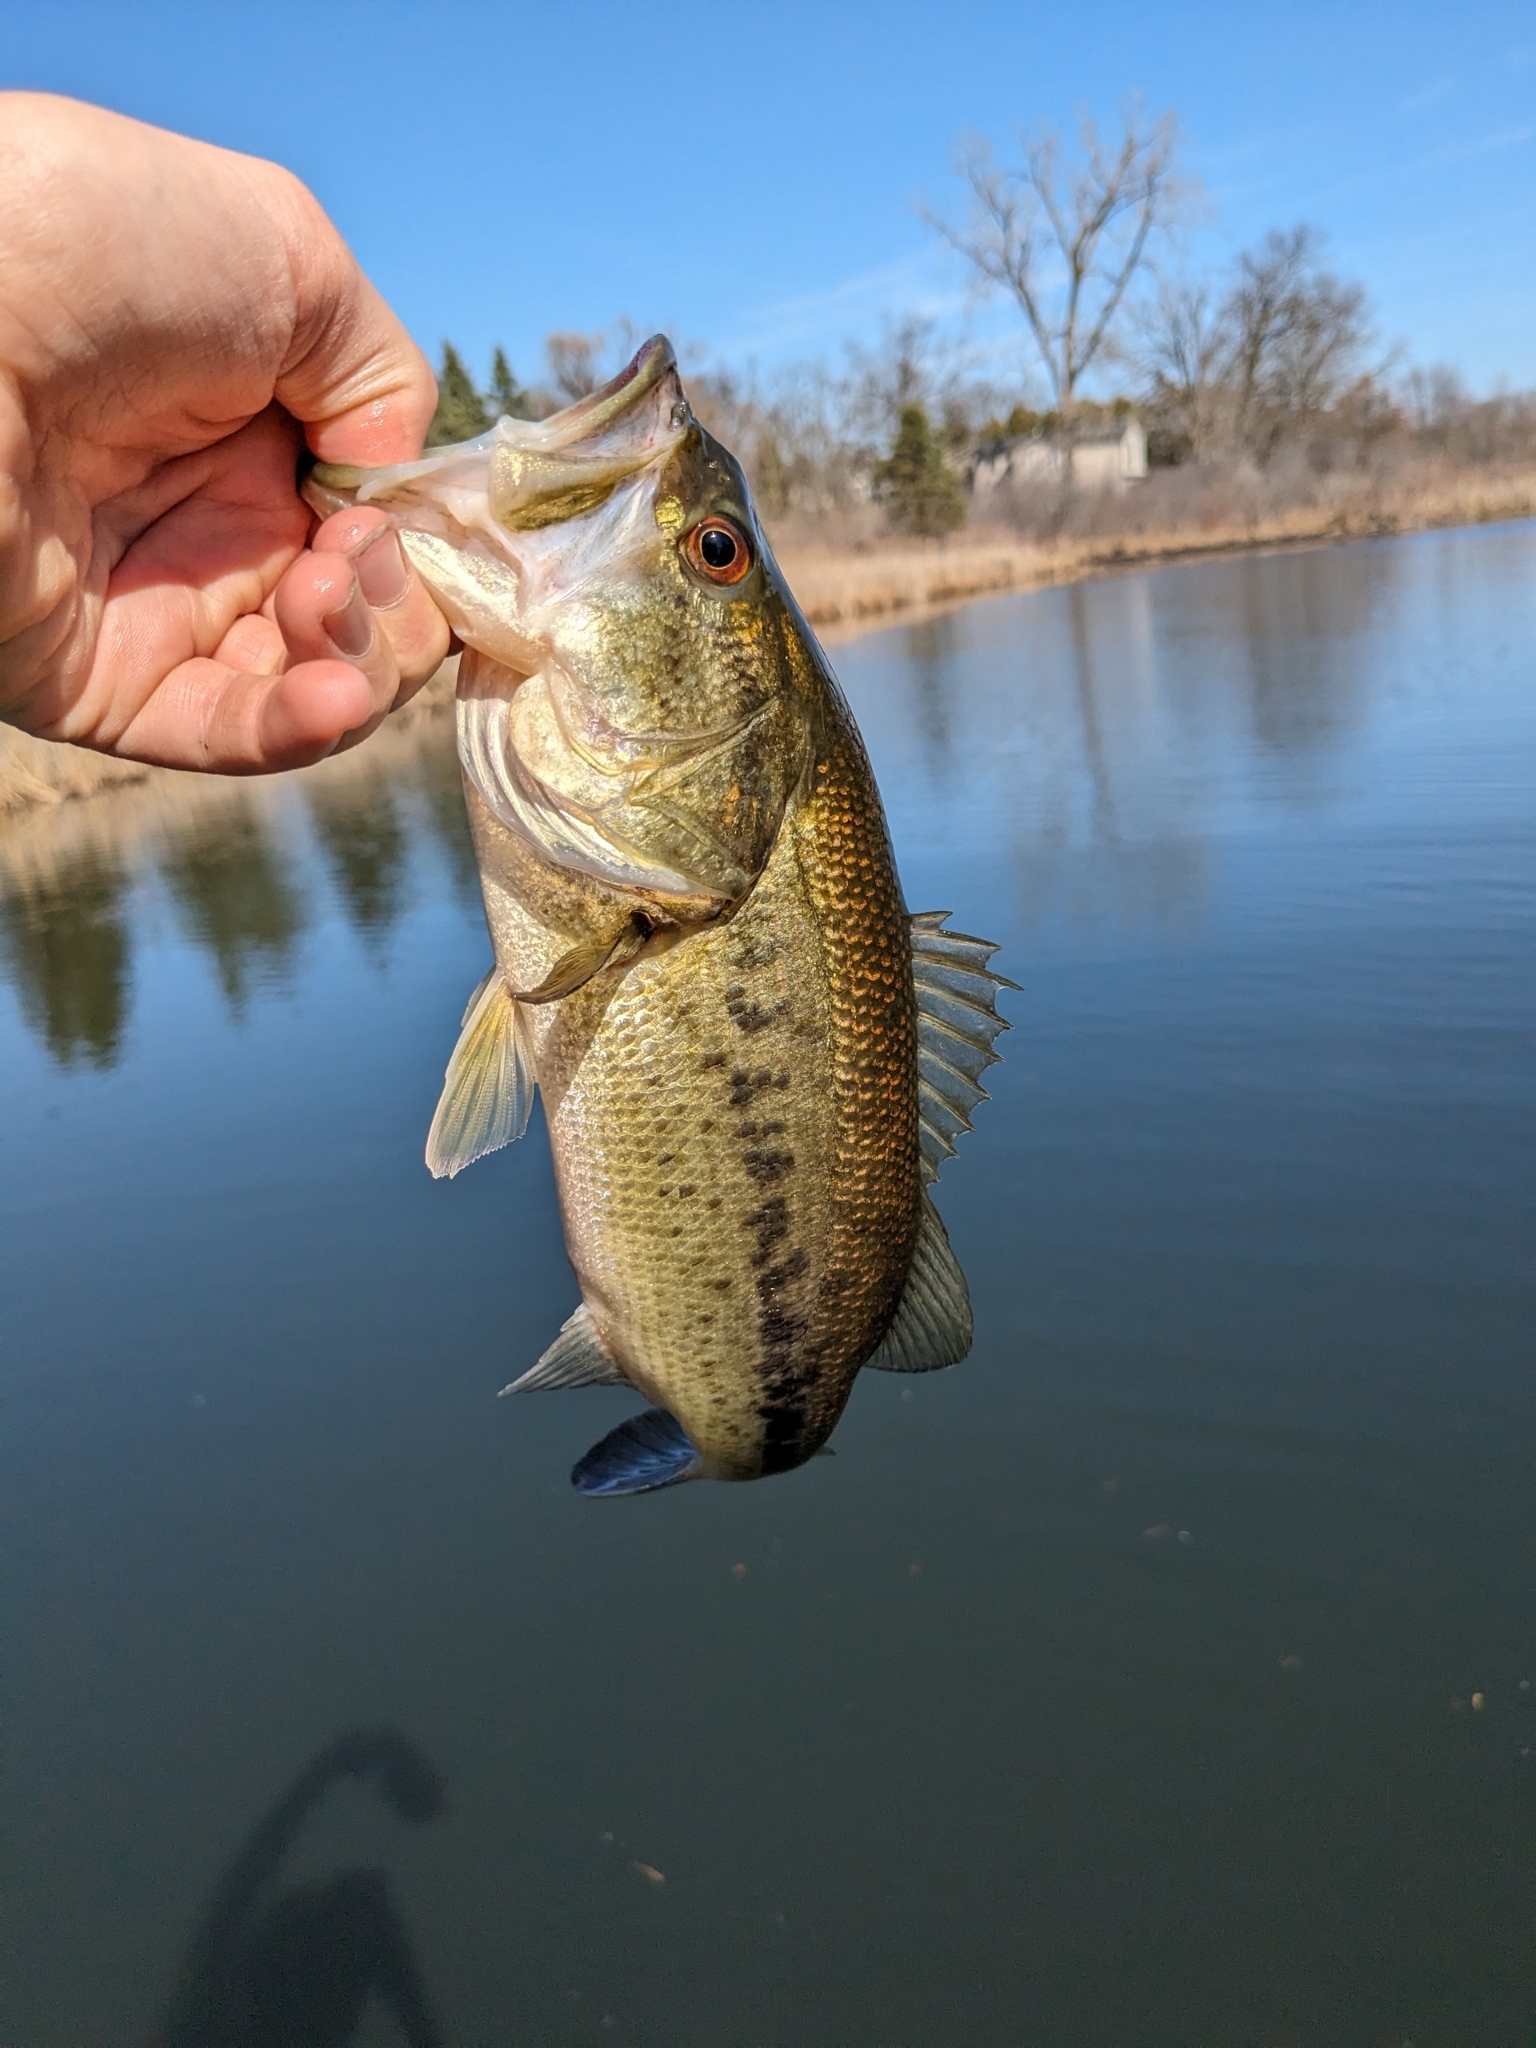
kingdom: Animalia
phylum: Chordata
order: Perciformes
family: Centrarchidae
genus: Micropterus
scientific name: Micropterus
